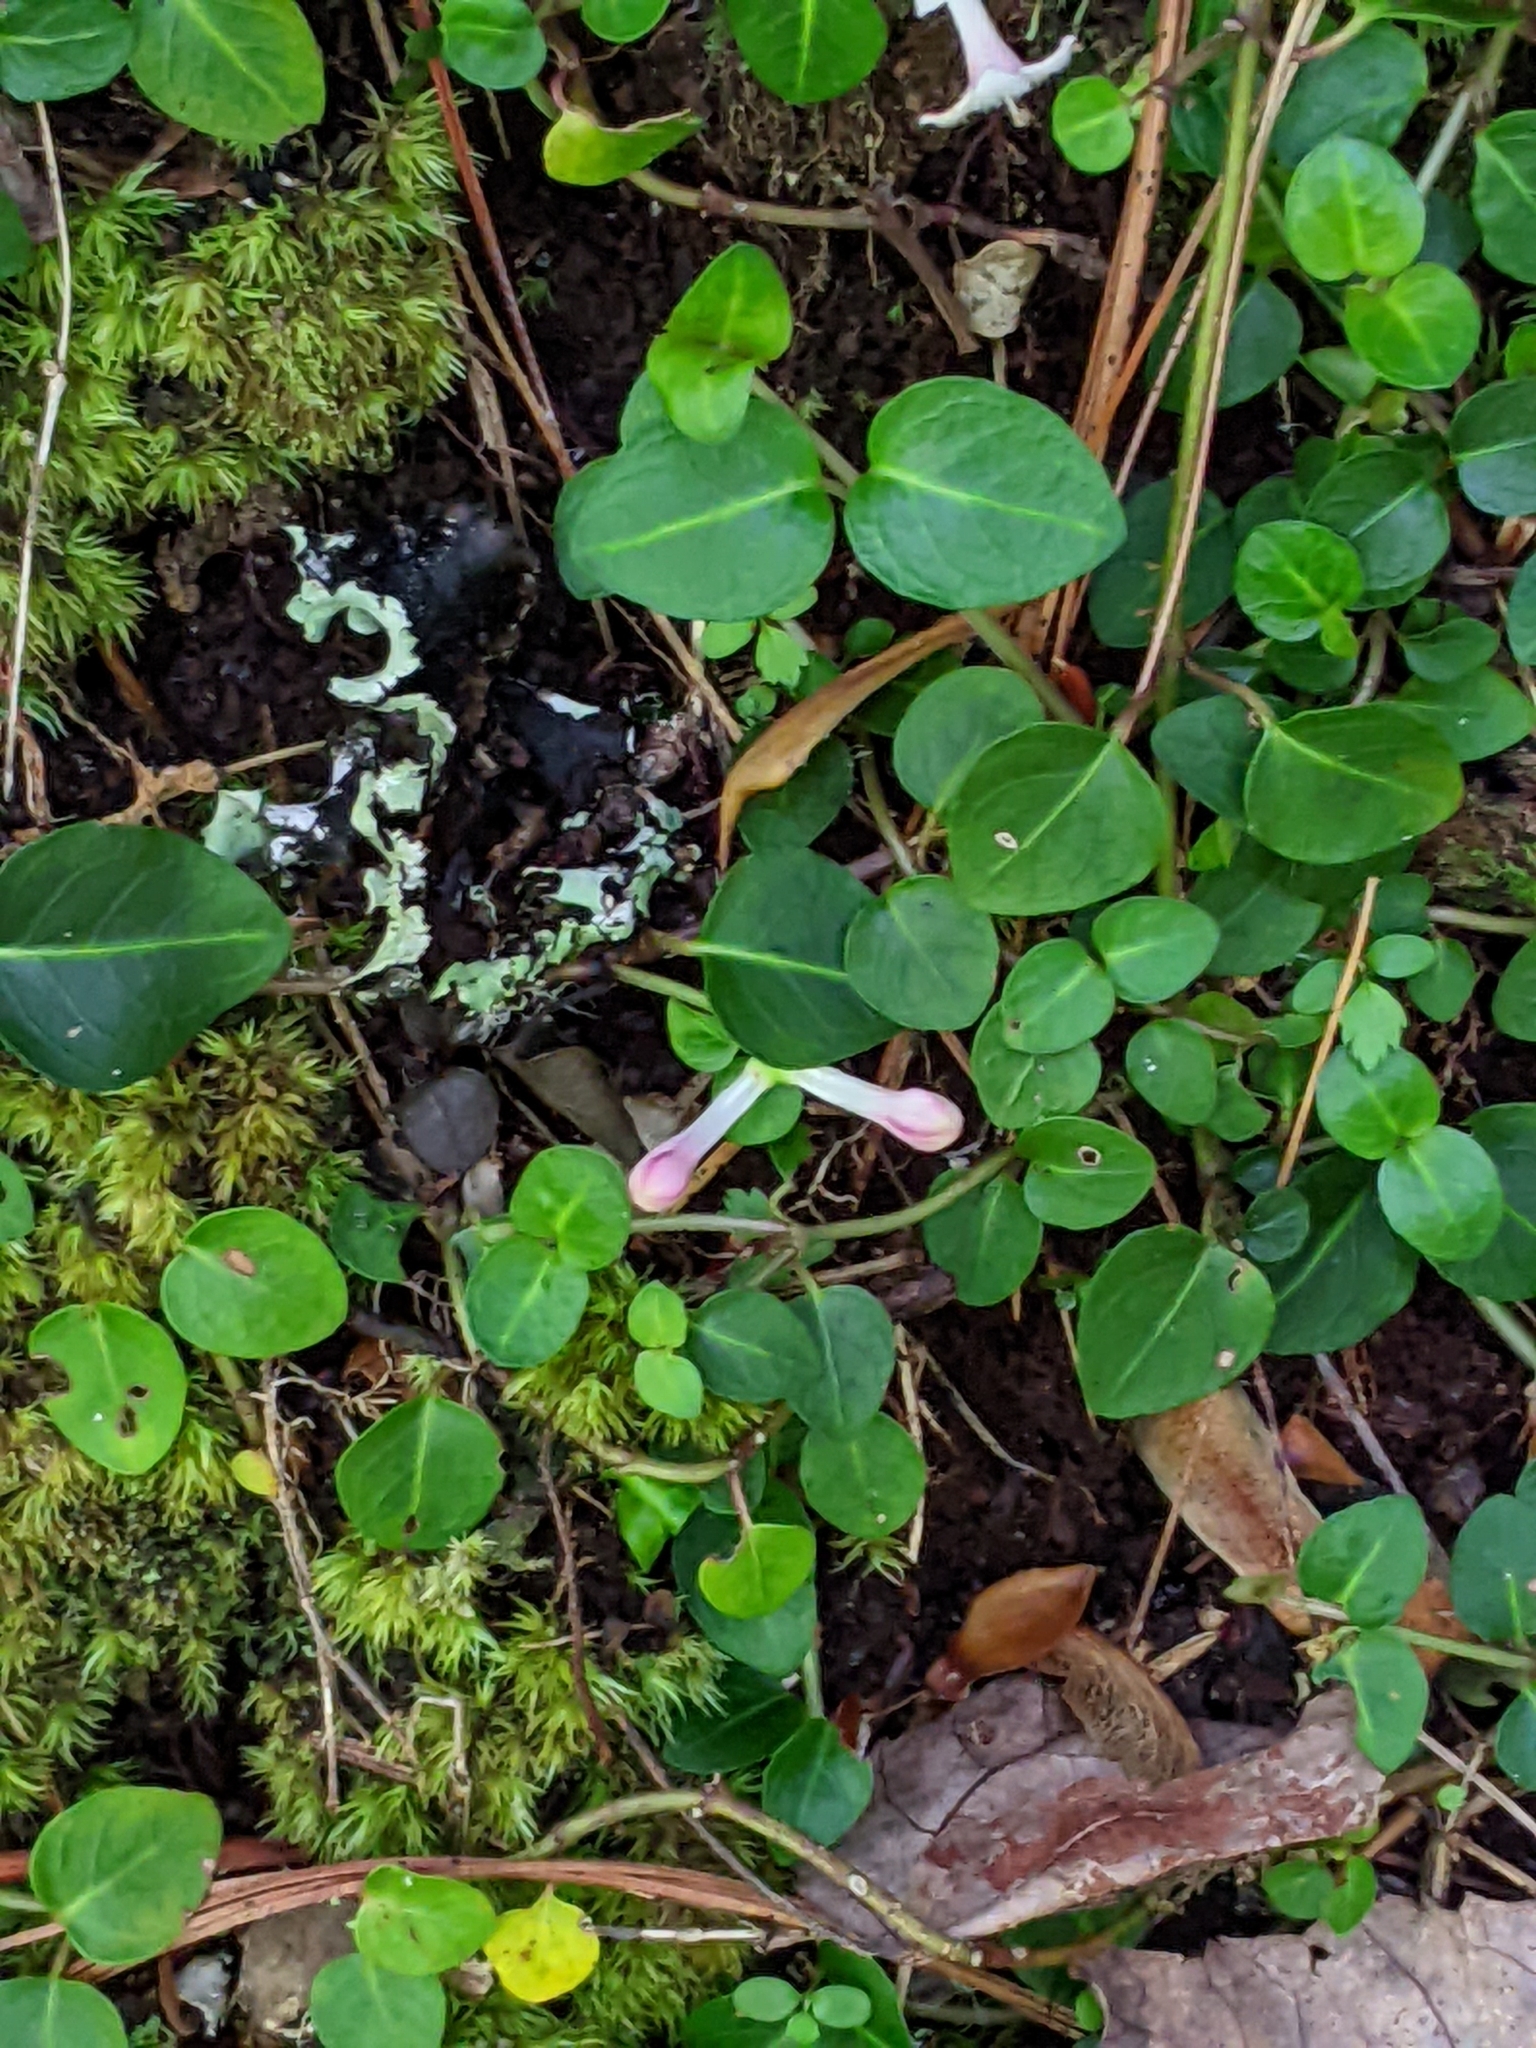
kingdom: Plantae
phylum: Tracheophyta
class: Magnoliopsida
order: Gentianales
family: Rubiaceae
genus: Mitchella
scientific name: Mitchella repens
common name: Partridge-berry
